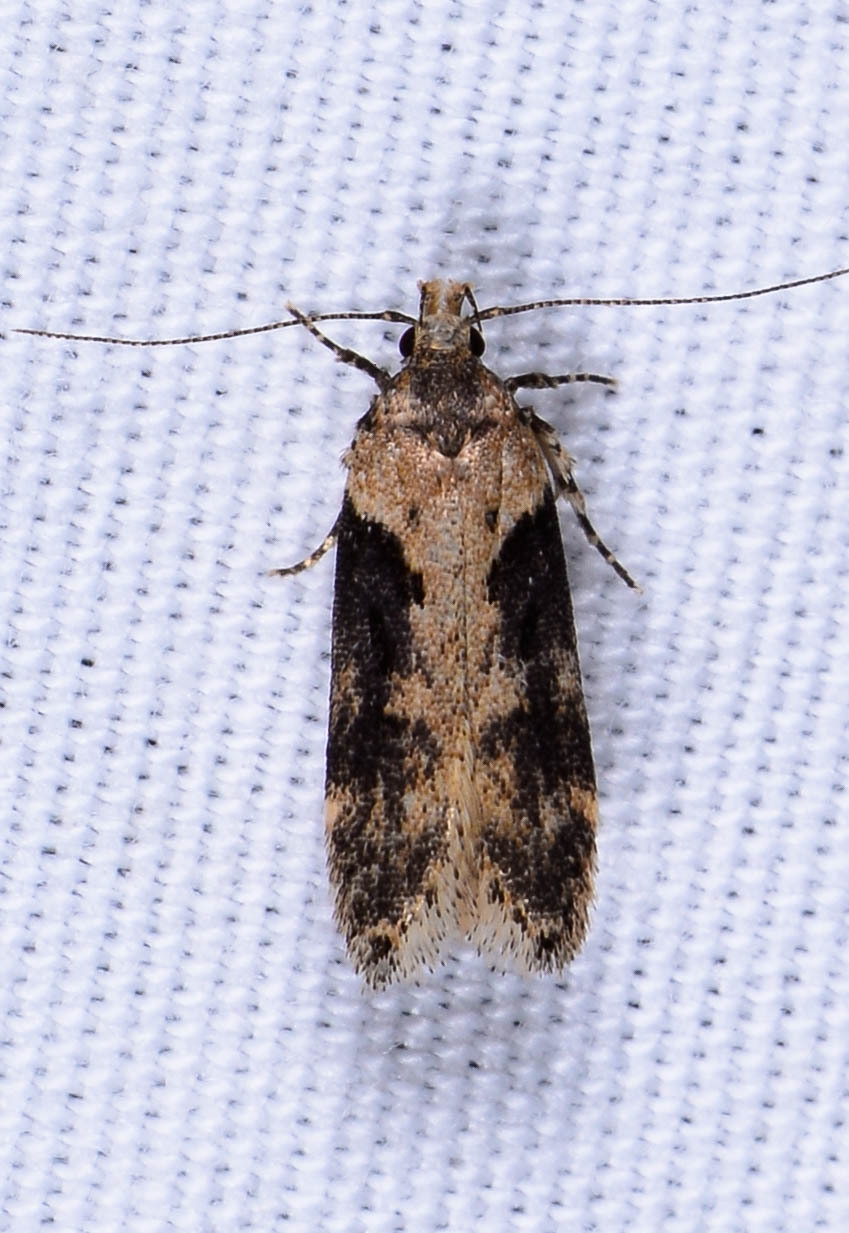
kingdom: Animalia
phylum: Arthropoda
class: Insecta
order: Lepidoptera
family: Gelechiidae
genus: Chionodes
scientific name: Chionodes mediofuscella
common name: Black-smudged chionodes moth
